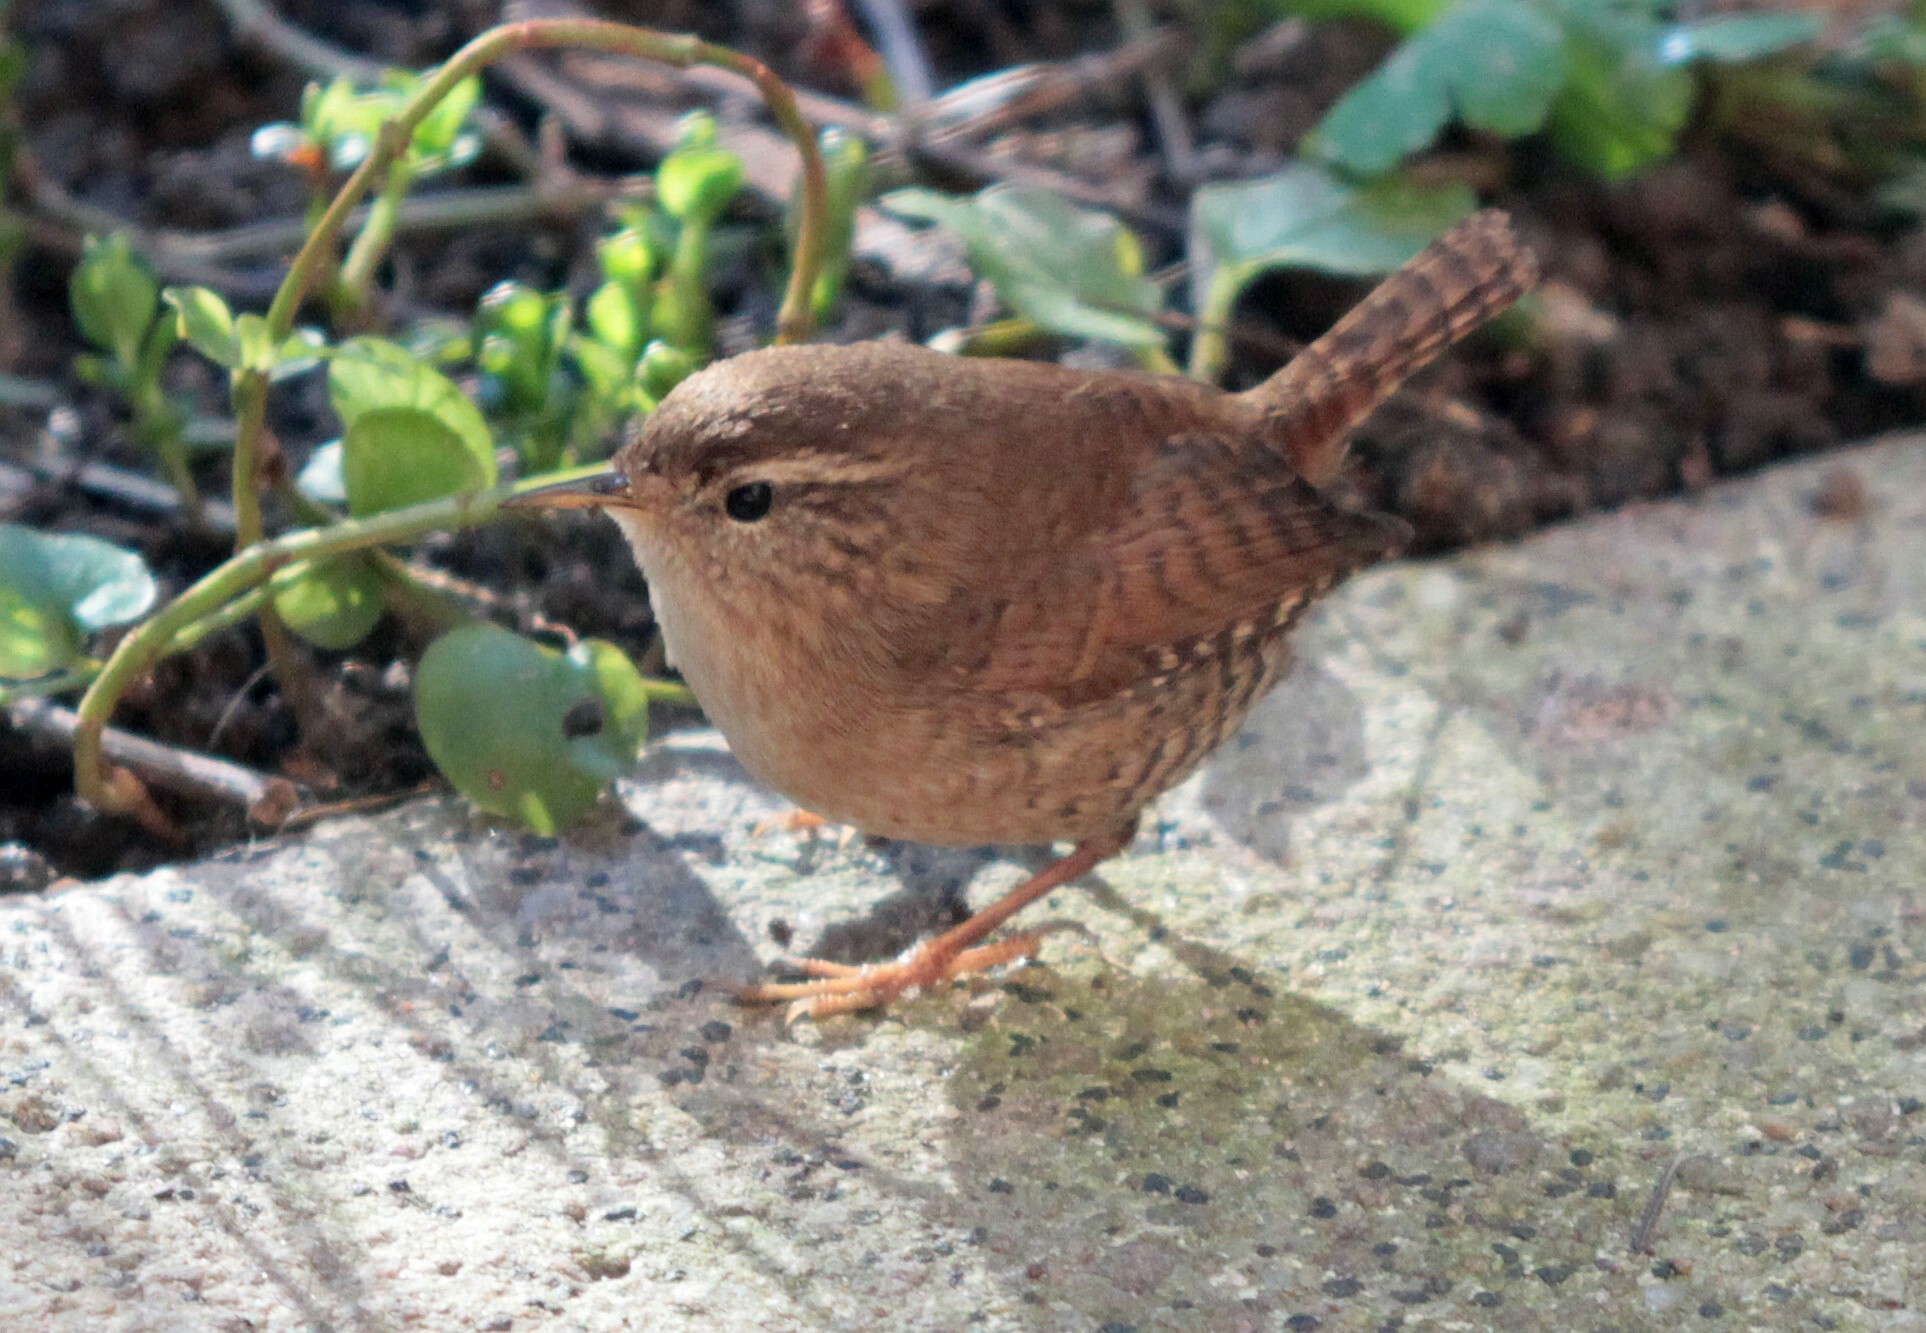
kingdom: Animalia
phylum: Chordata
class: Aves
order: Passeriformes
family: Troglodytidae
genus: Troglodytes
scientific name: Troglodytes troglodytes
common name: Eurasian wren
